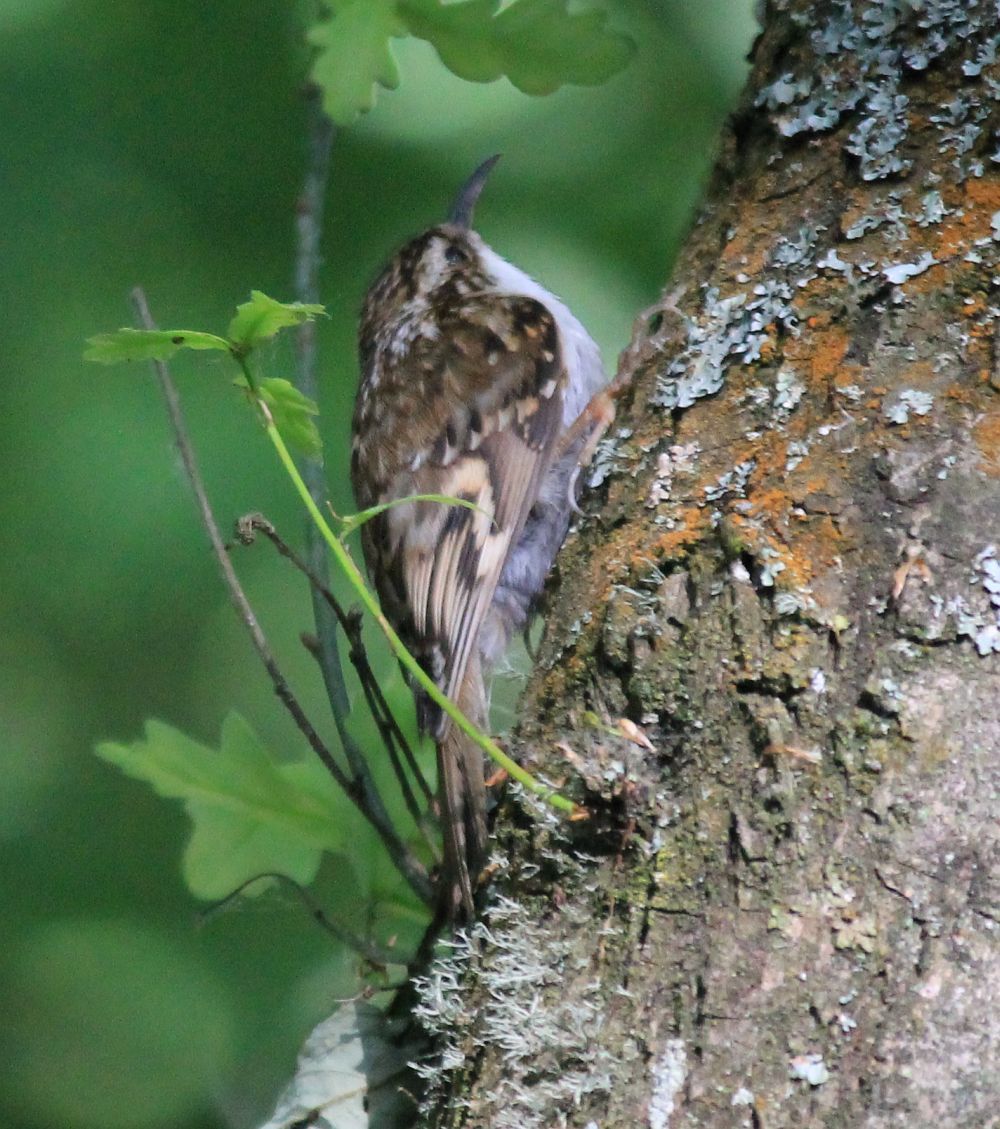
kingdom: Animalia
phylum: Chordata
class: Aves
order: Passeriformes
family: Certhiidae
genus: Certhia
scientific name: Certhia familiaris
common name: Eurasian treecreeper
